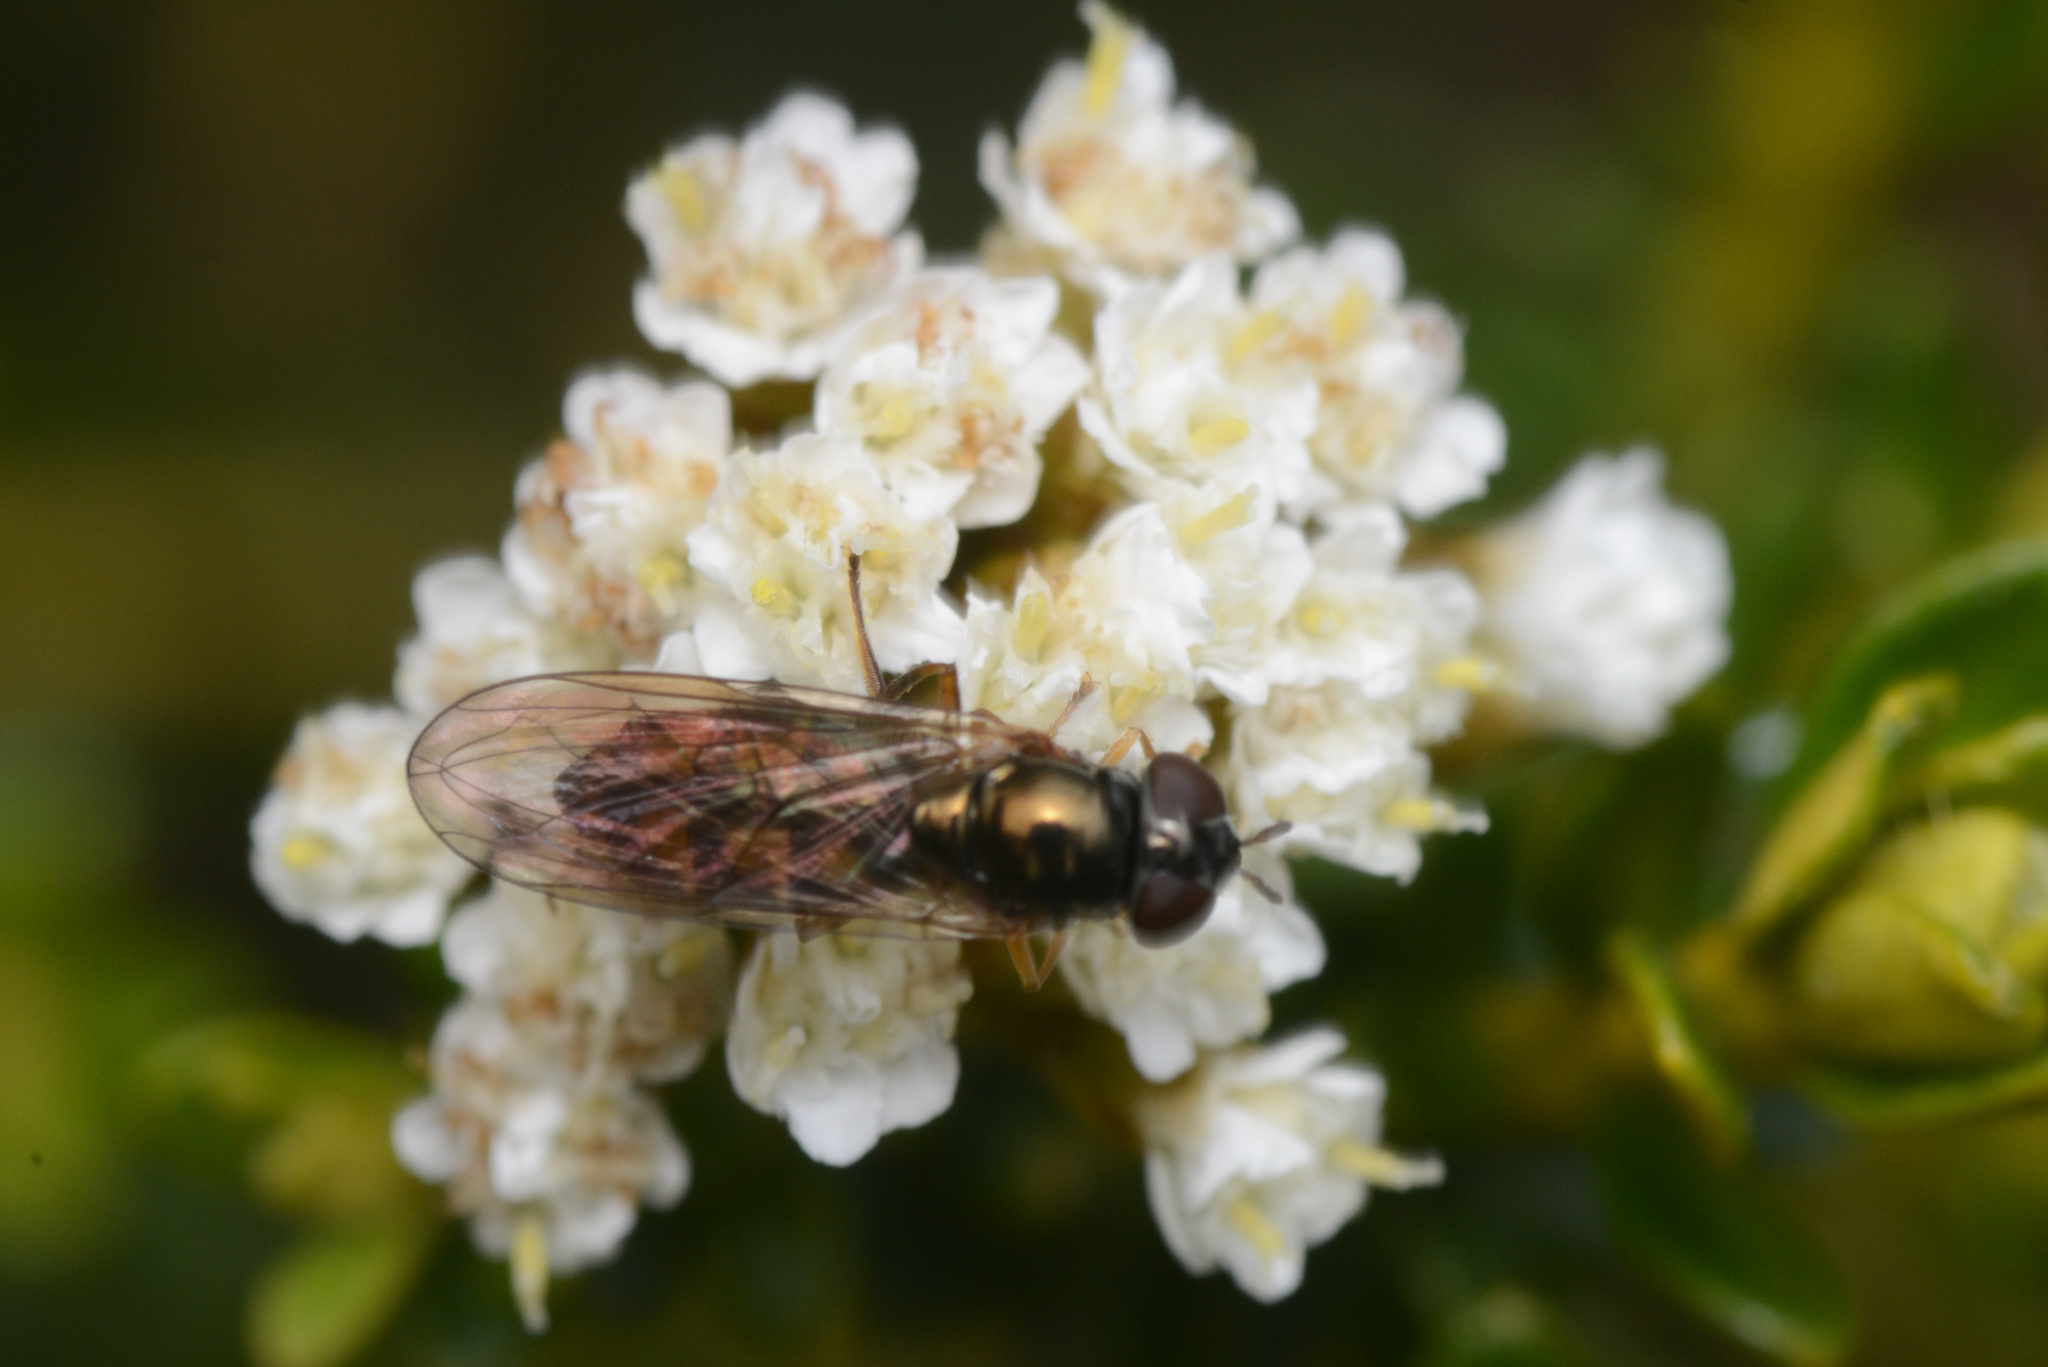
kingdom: Animalia
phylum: Arthropoda
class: Insecta
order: Diptera
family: Syrphidae
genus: Melanostoma
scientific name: Melanostoma fasciatum
